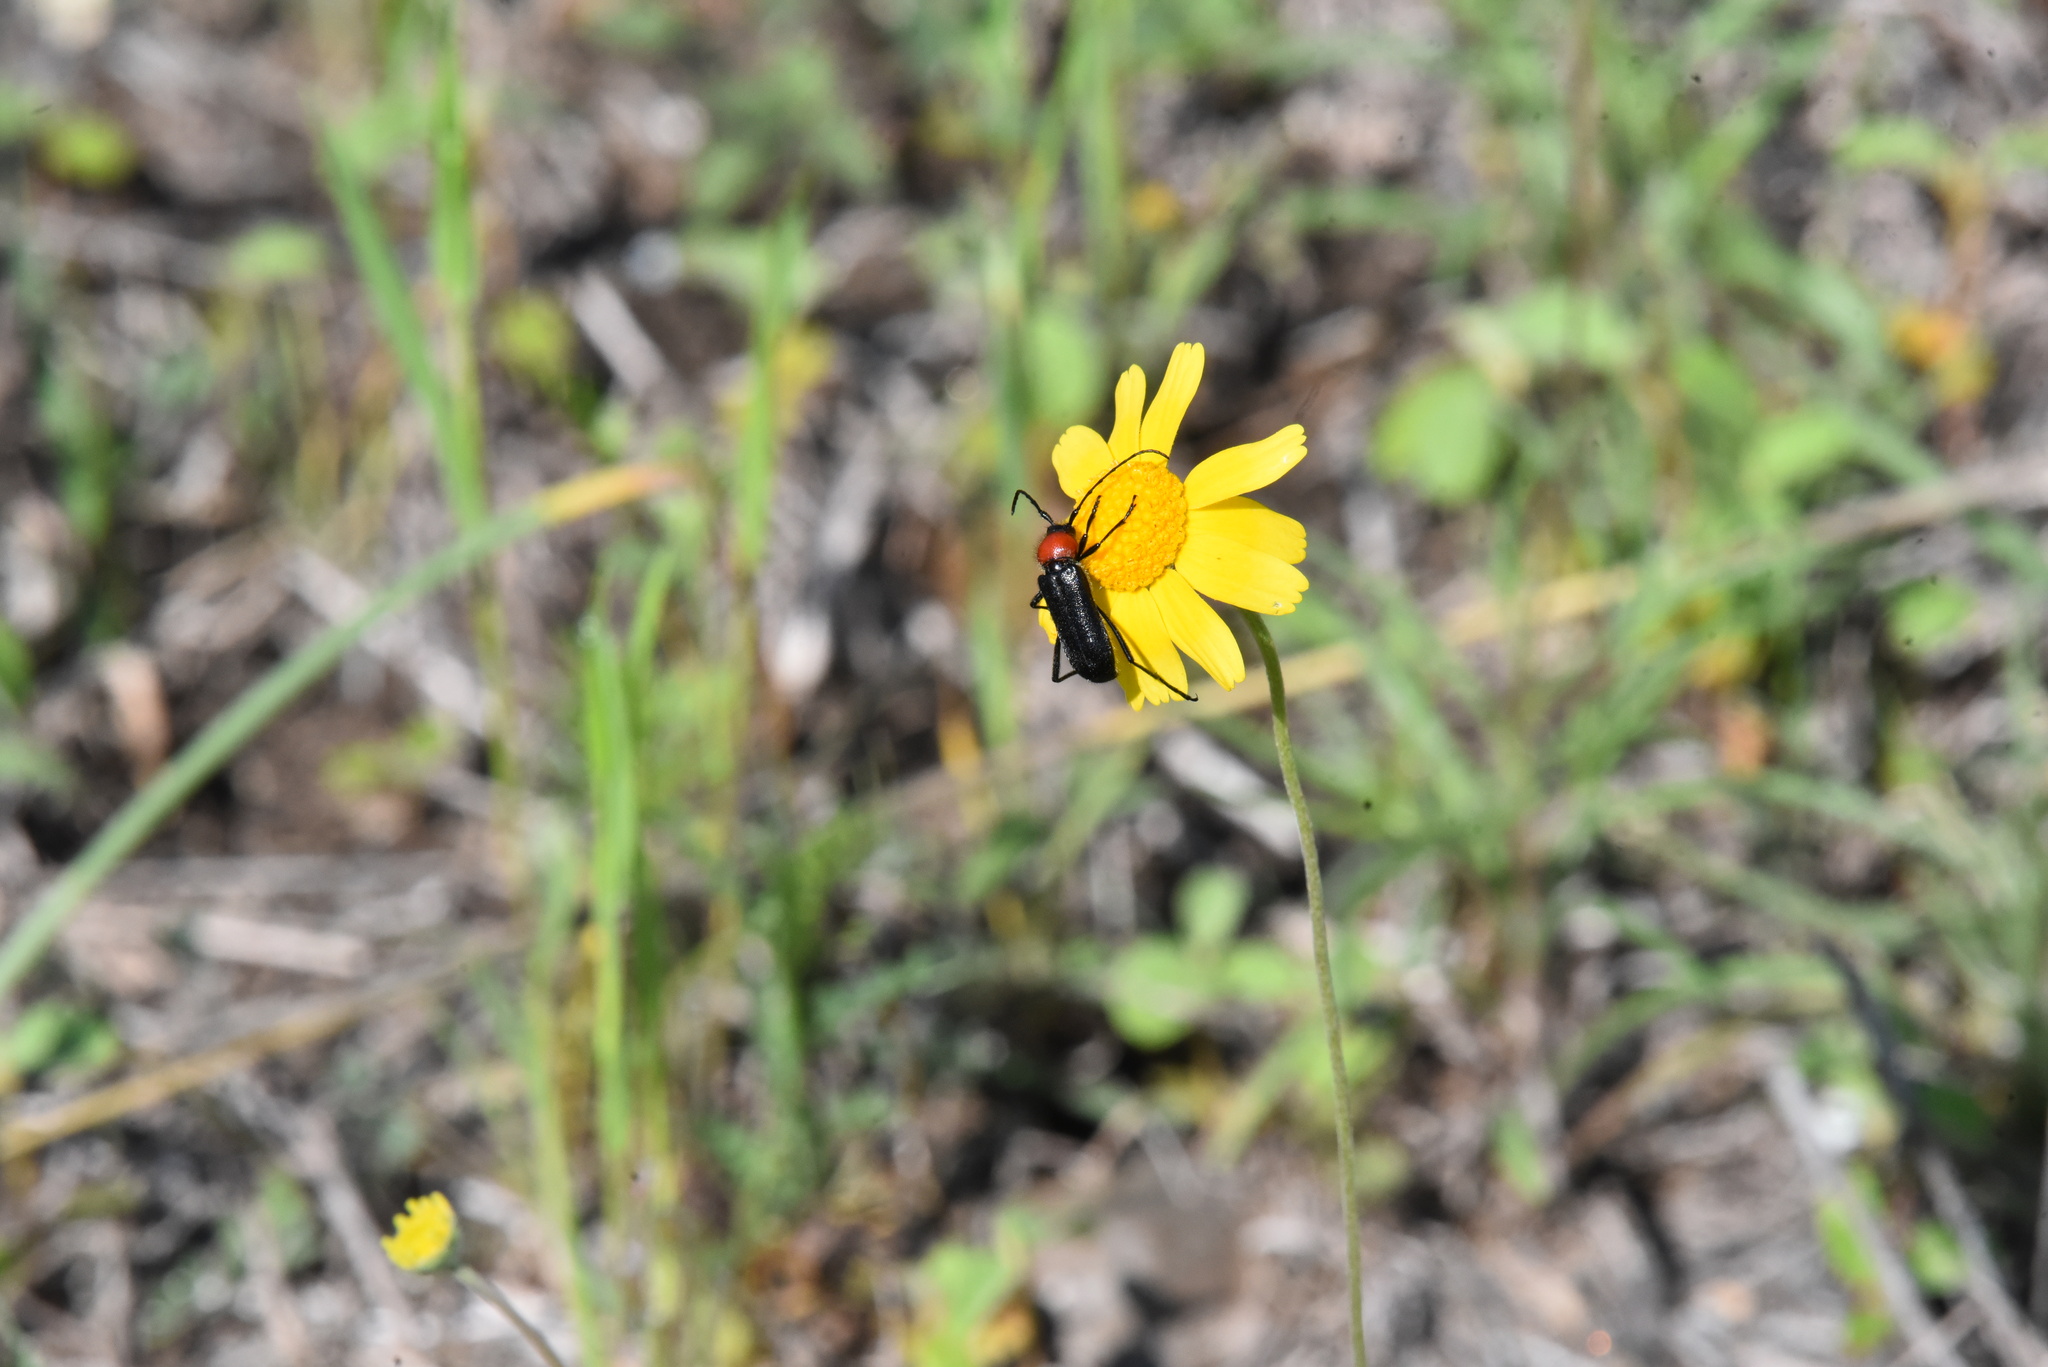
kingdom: Animalia
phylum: Arthropoda
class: Insecta
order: Coleoptera
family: Cerambycidae
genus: Batyle
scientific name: Batyle ignicollis
